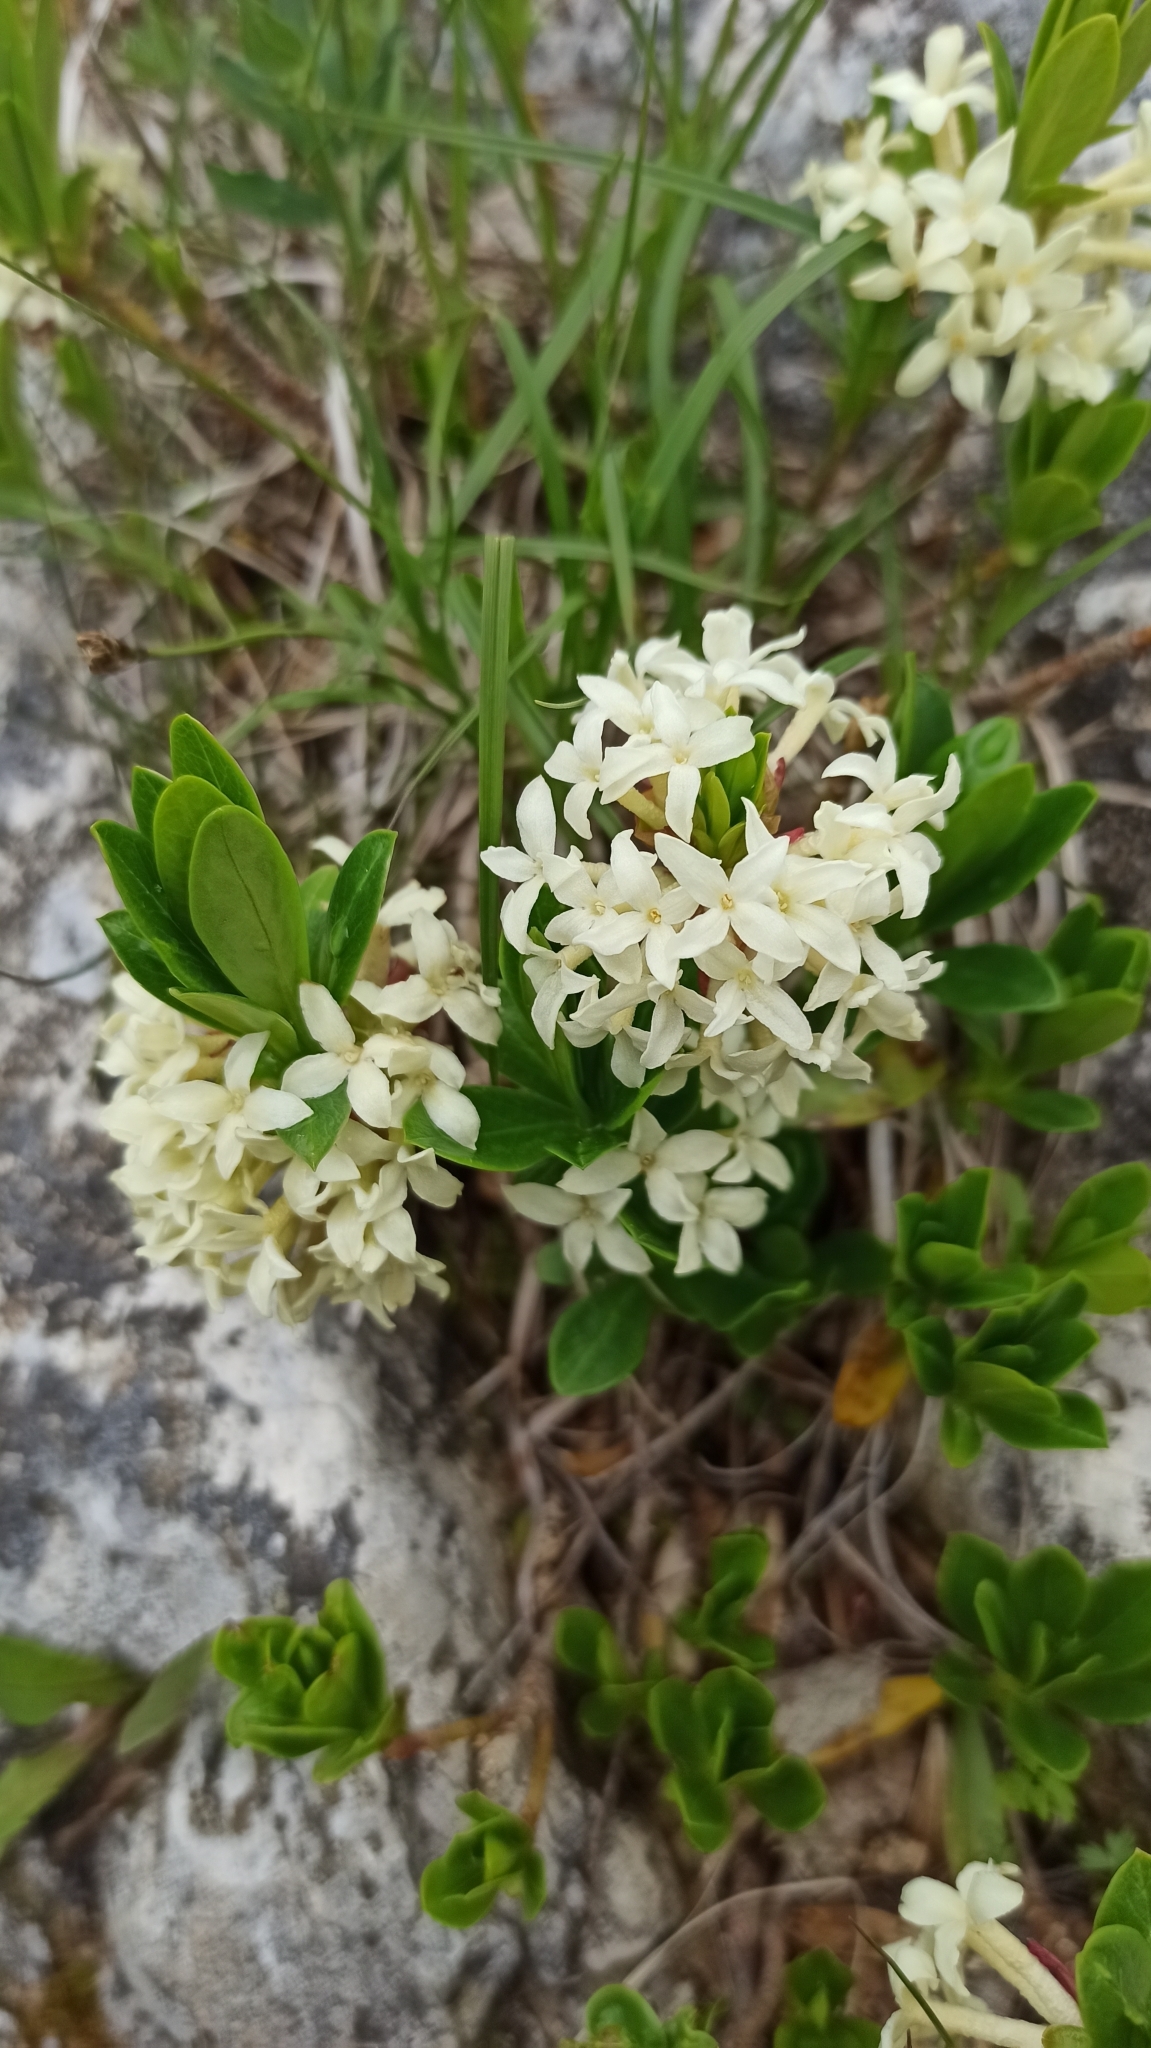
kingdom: Plantae
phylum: Tracheophyta
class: Magnoliopsida
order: Malvales
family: Thymelaeaceae
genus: Daphne
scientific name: Daphne glomerata
